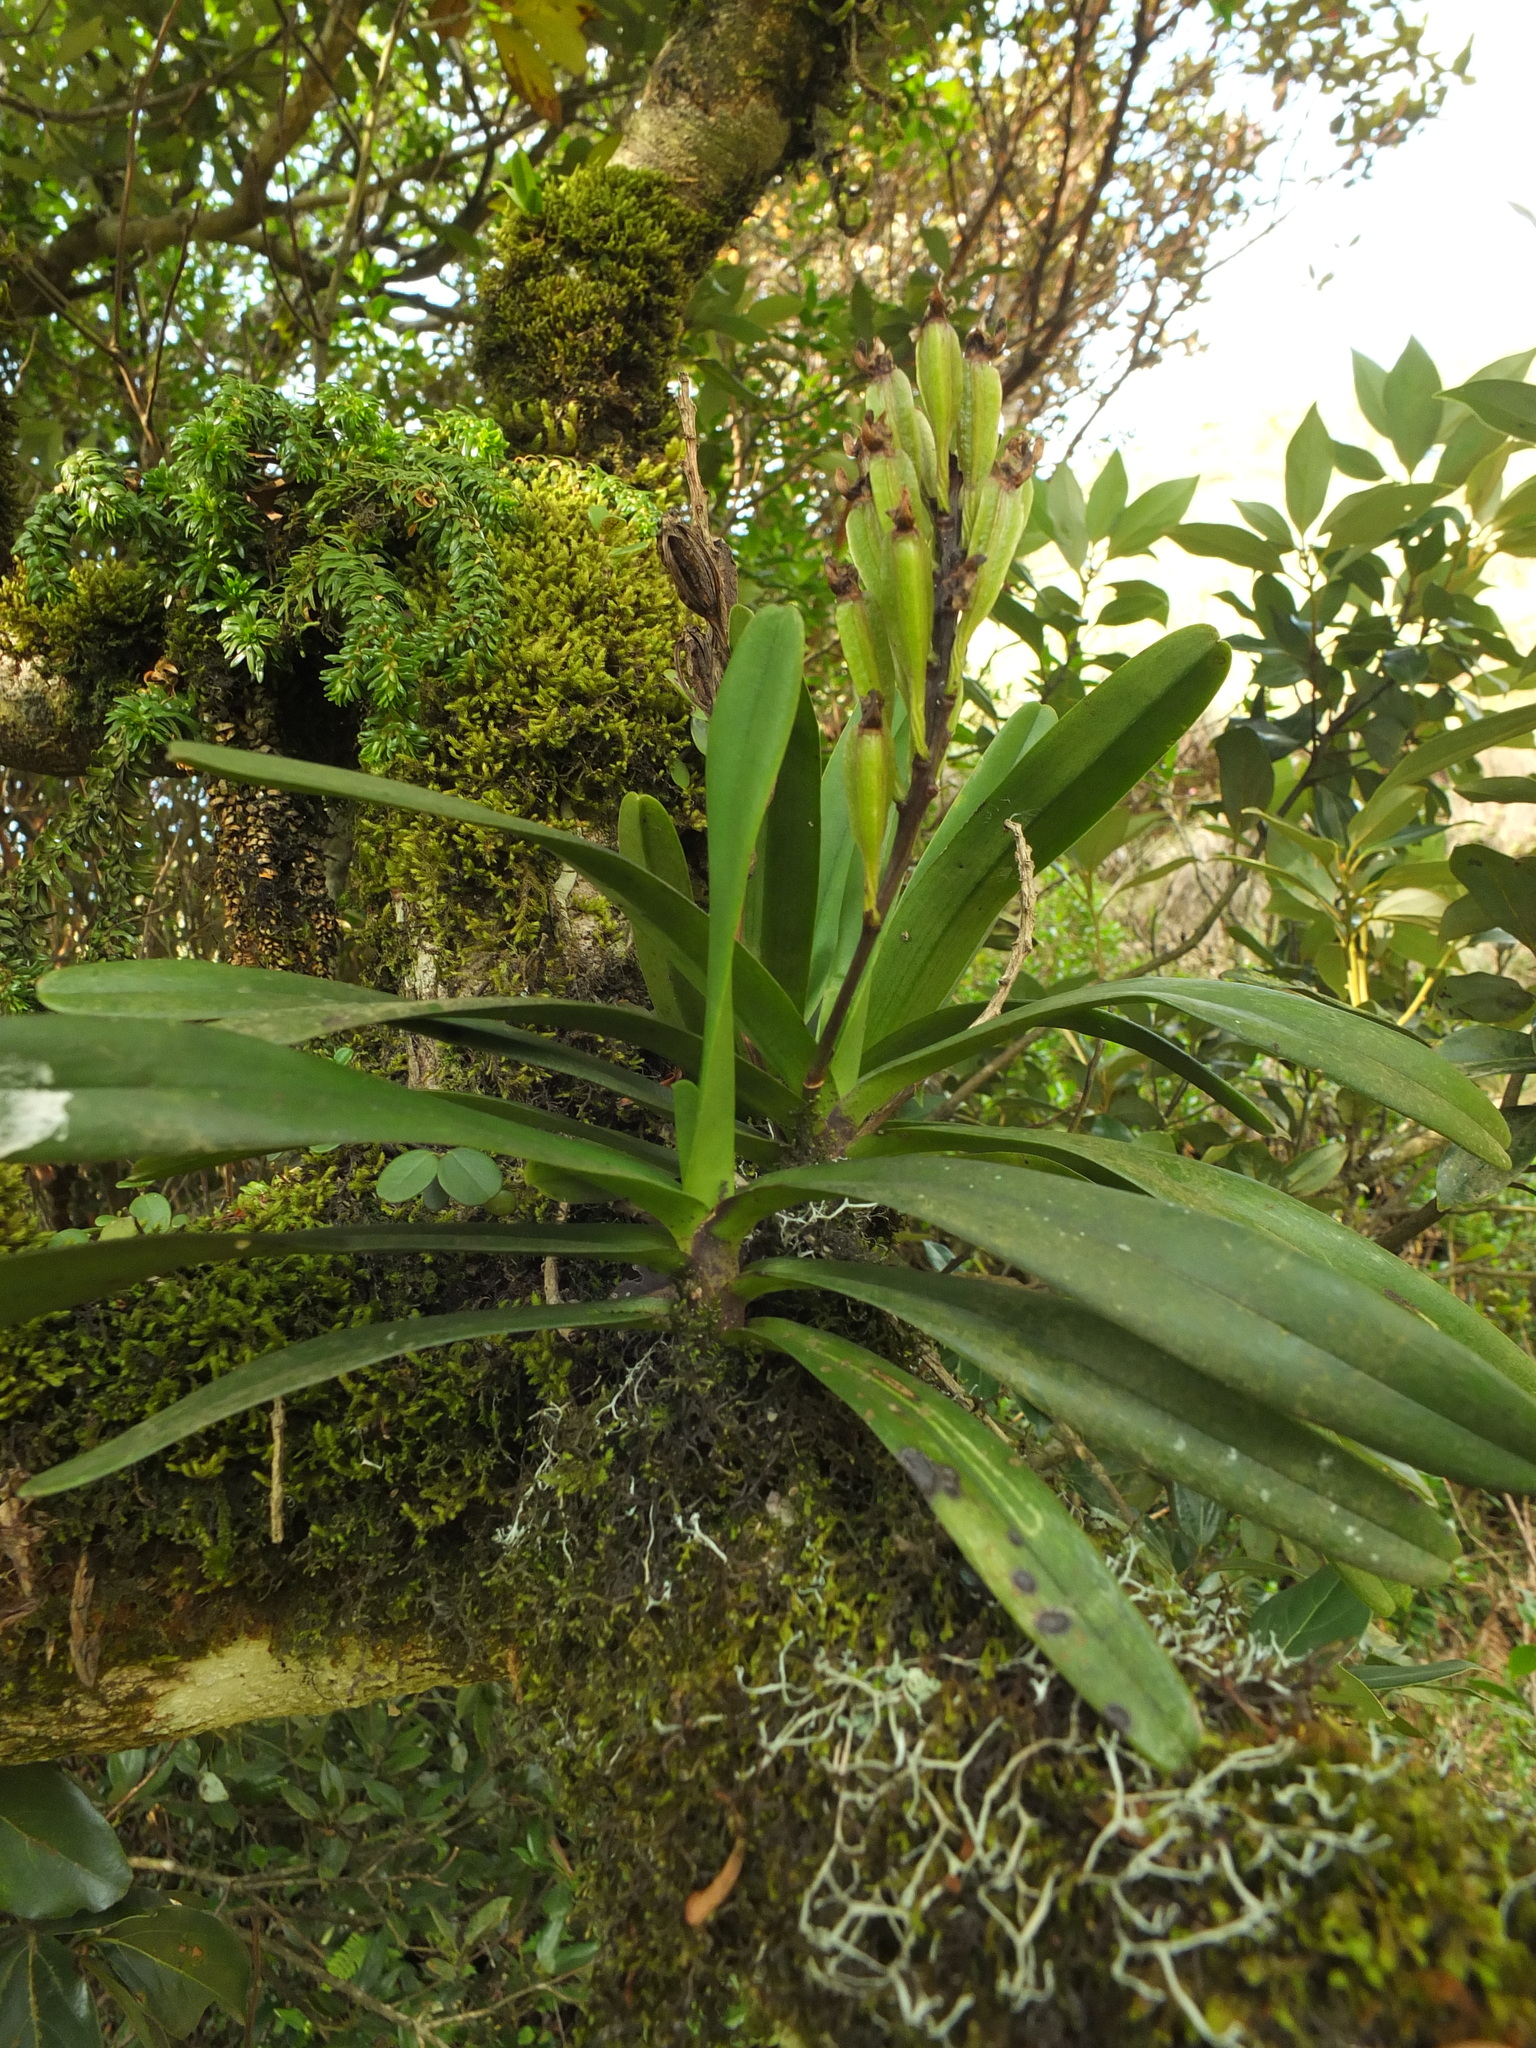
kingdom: Plantae
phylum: Tracheophyta
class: Liliopsida
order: Asparagales
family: Orchidaceae
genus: Aerides
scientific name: Aerides ringens
